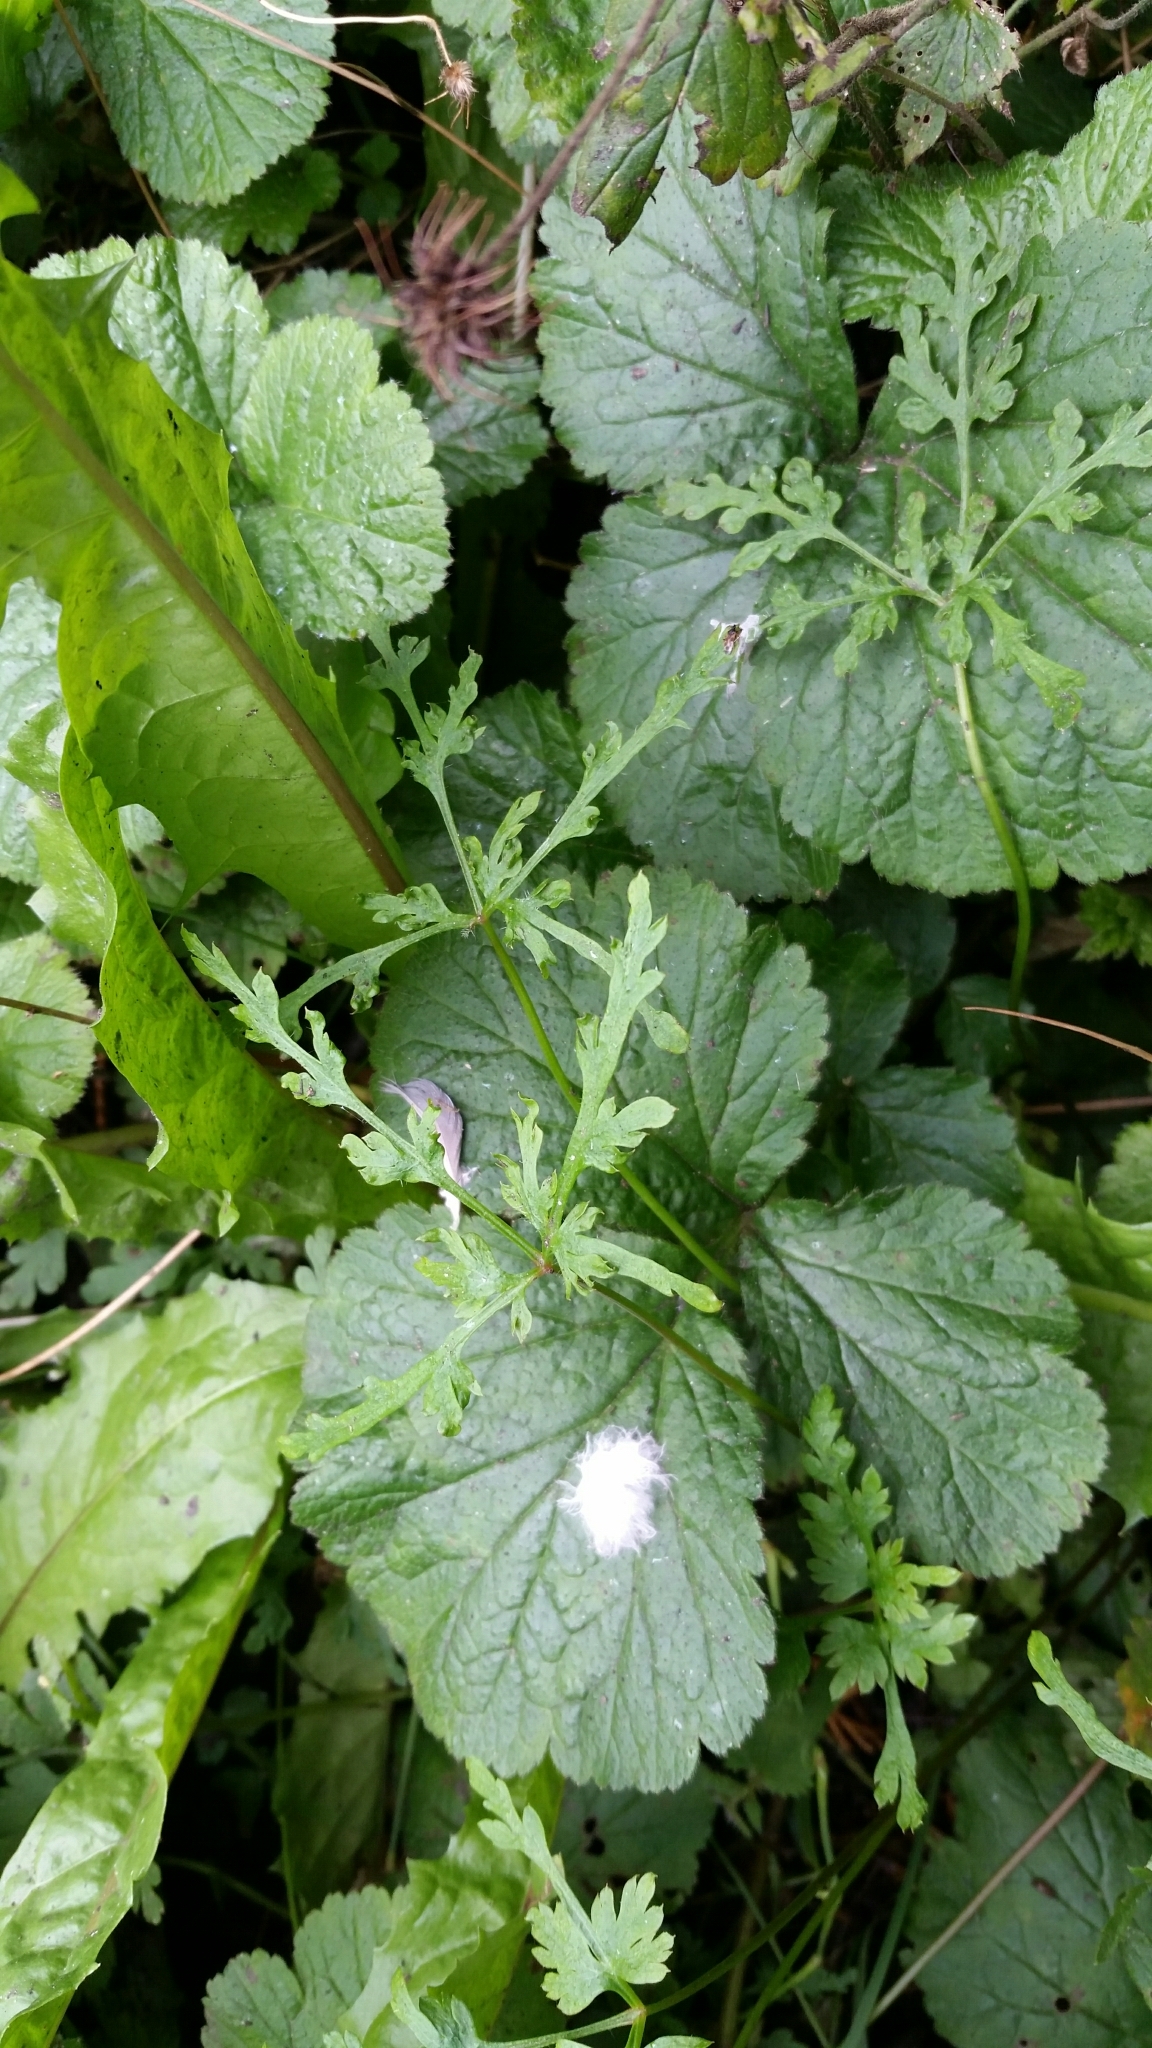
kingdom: Plantae
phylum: Tracheophyta
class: Magnoliopsida
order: Geraniales
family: Geraniaceae
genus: Geranium
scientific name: Geranium robertianum
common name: Herb-robert
